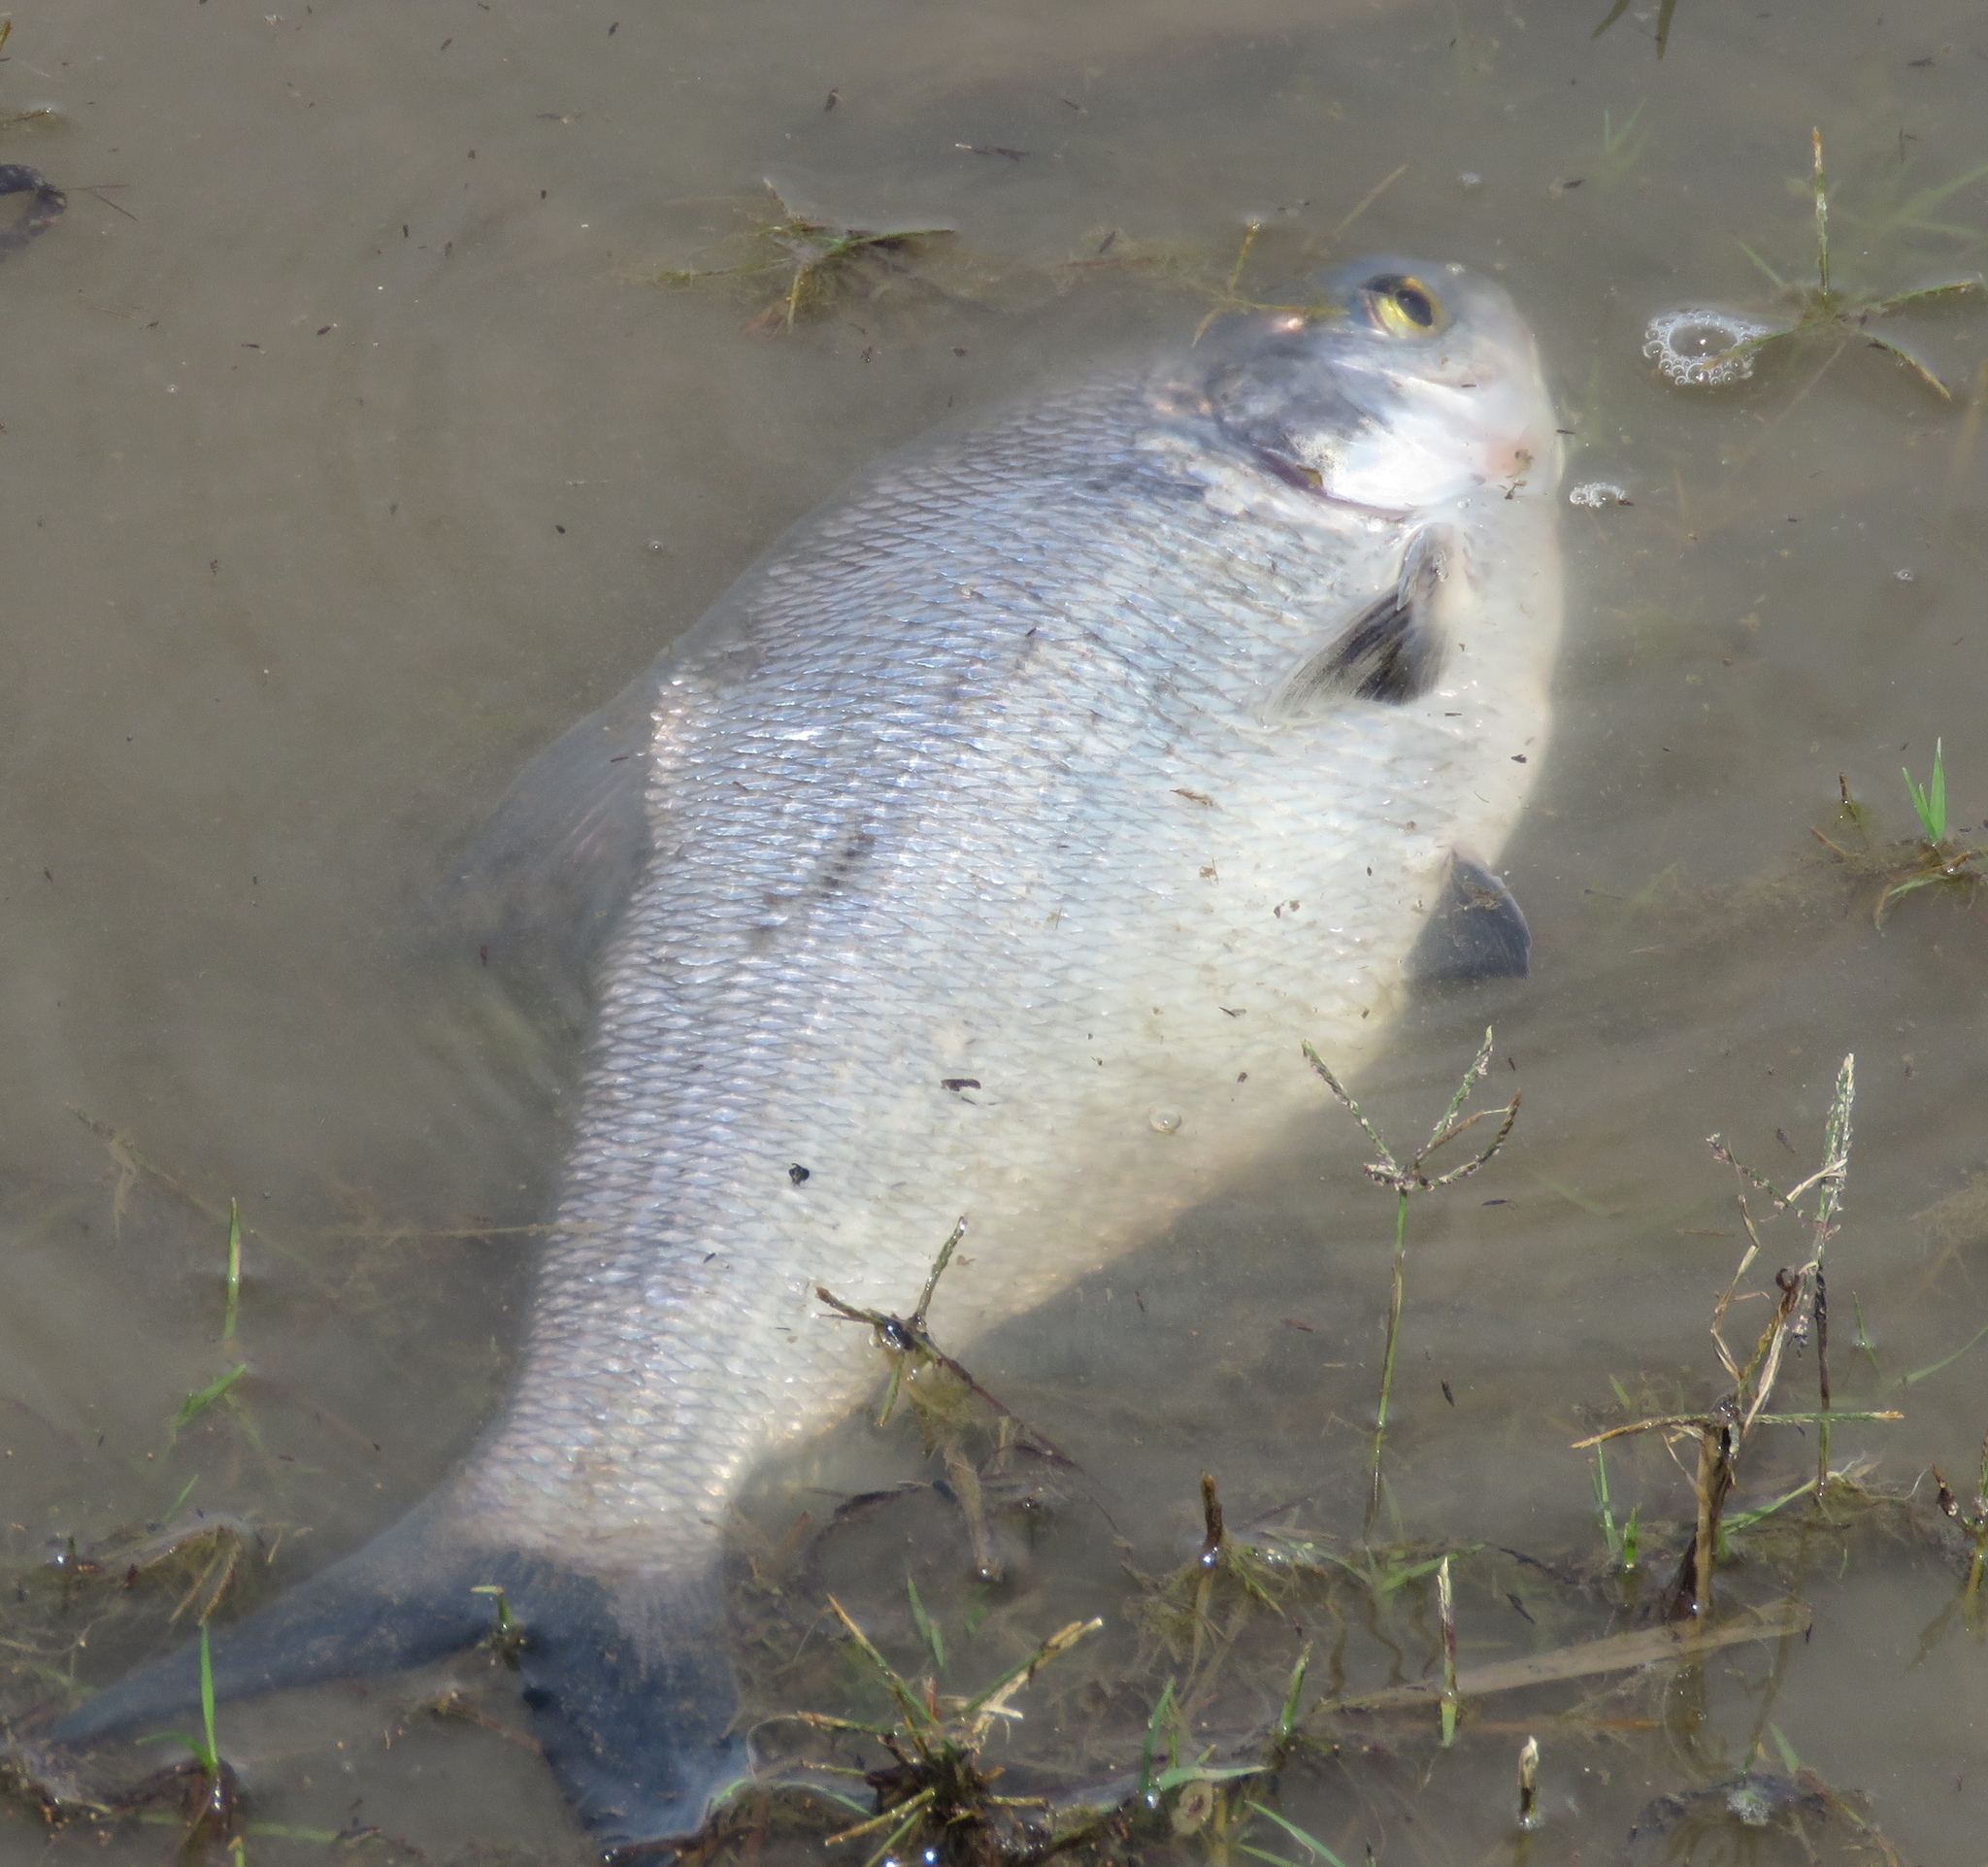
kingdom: Animalia
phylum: Chordata
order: Clupeiformes
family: Clupeidae
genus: Dorosoma
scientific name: Dorosoma cepedianum
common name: Gizzard shad
